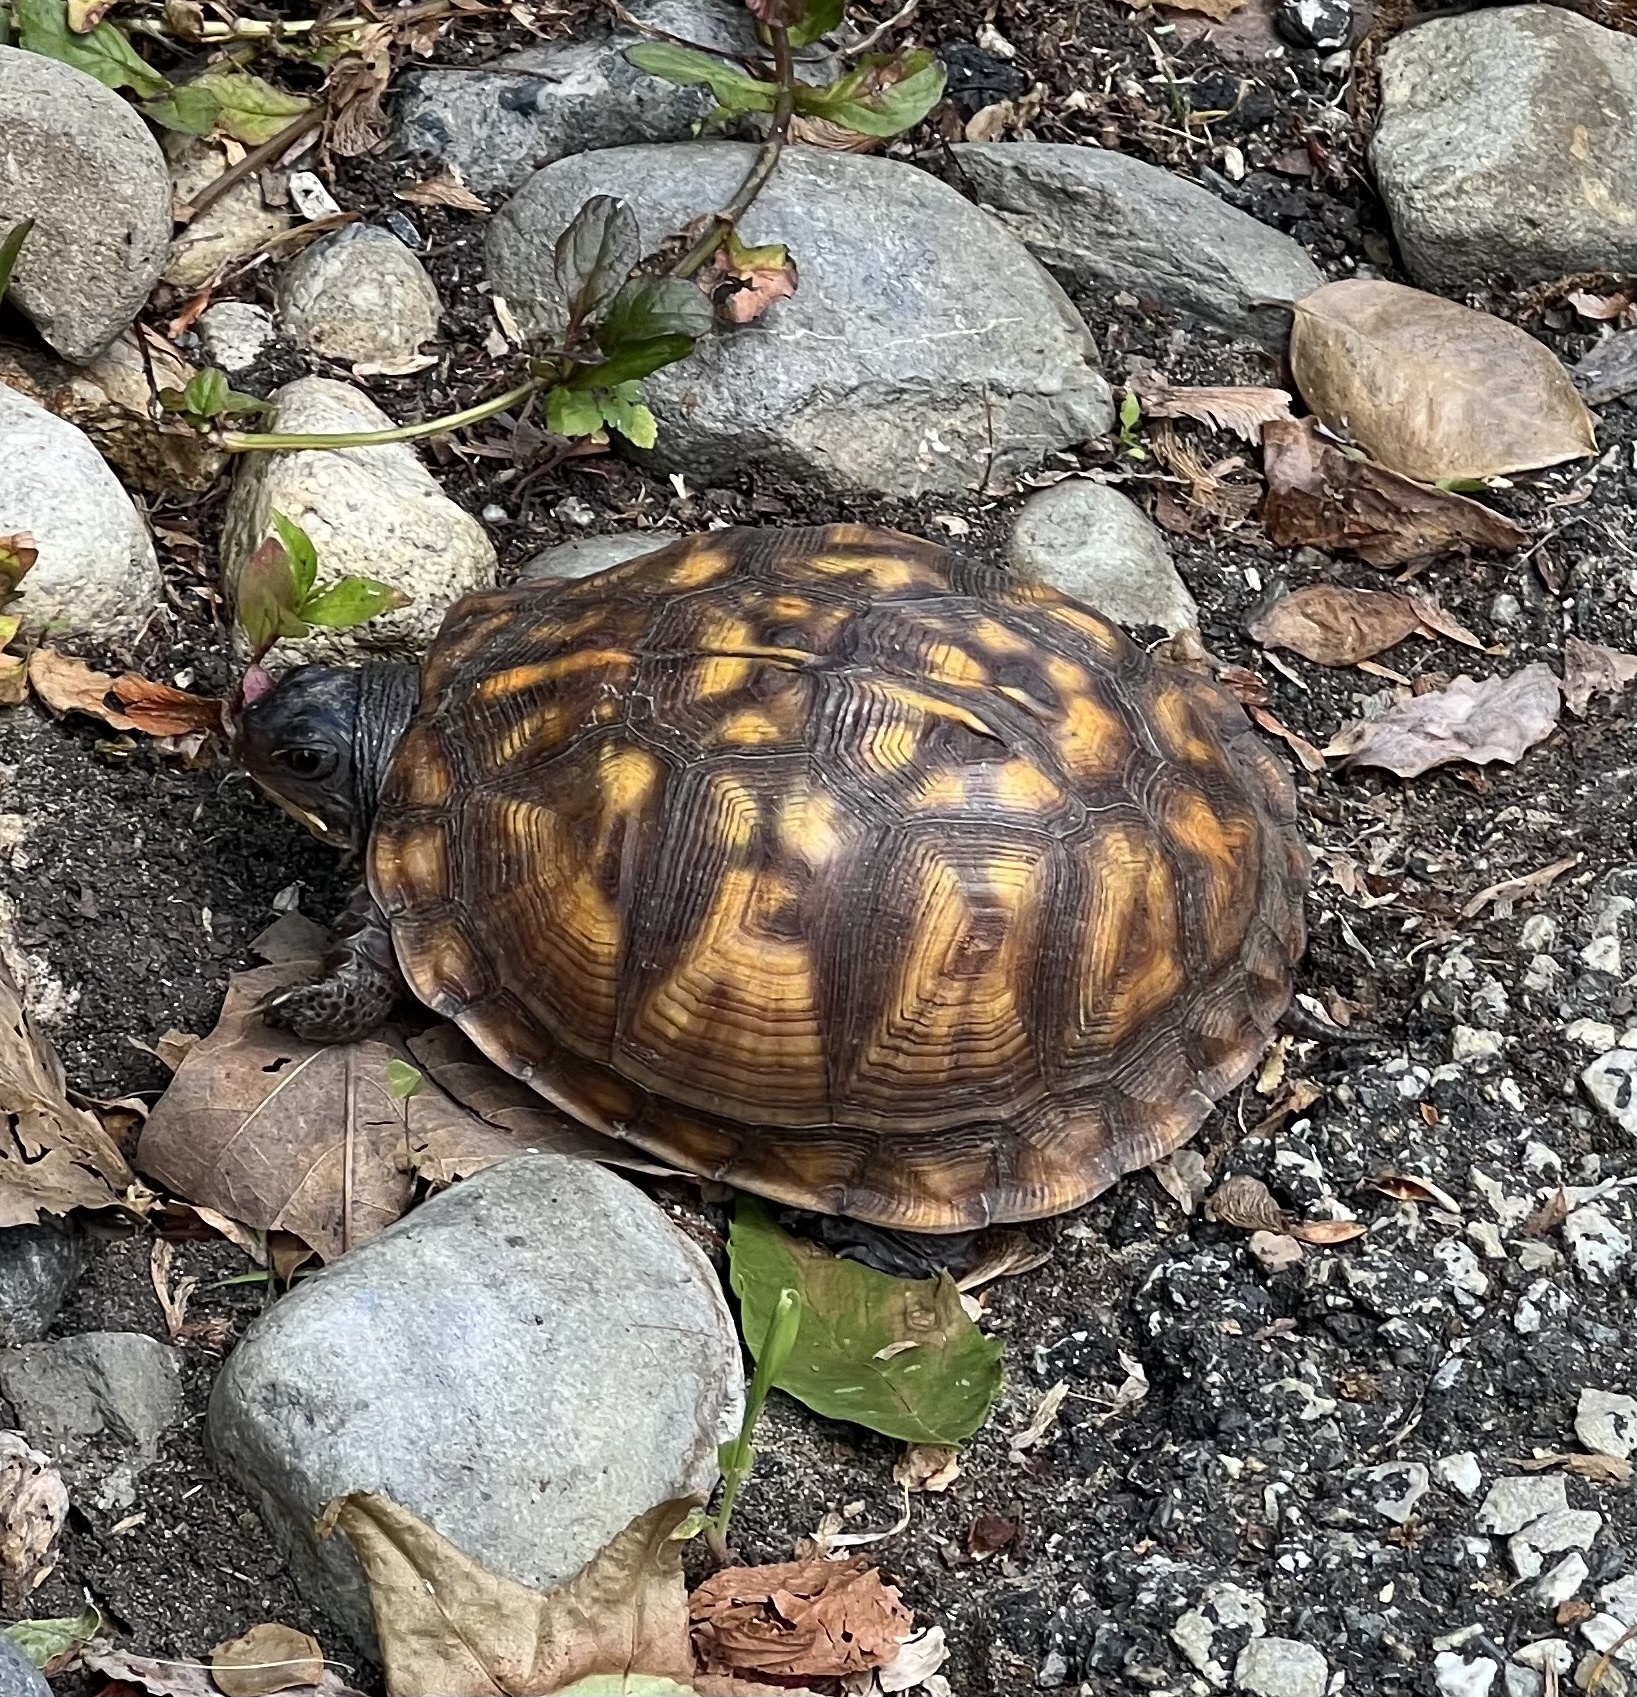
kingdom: Animalia
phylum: Chordata
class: Testudines
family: Emydidae
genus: Terrapene
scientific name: Terrapene carolina
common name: Common box turtle
